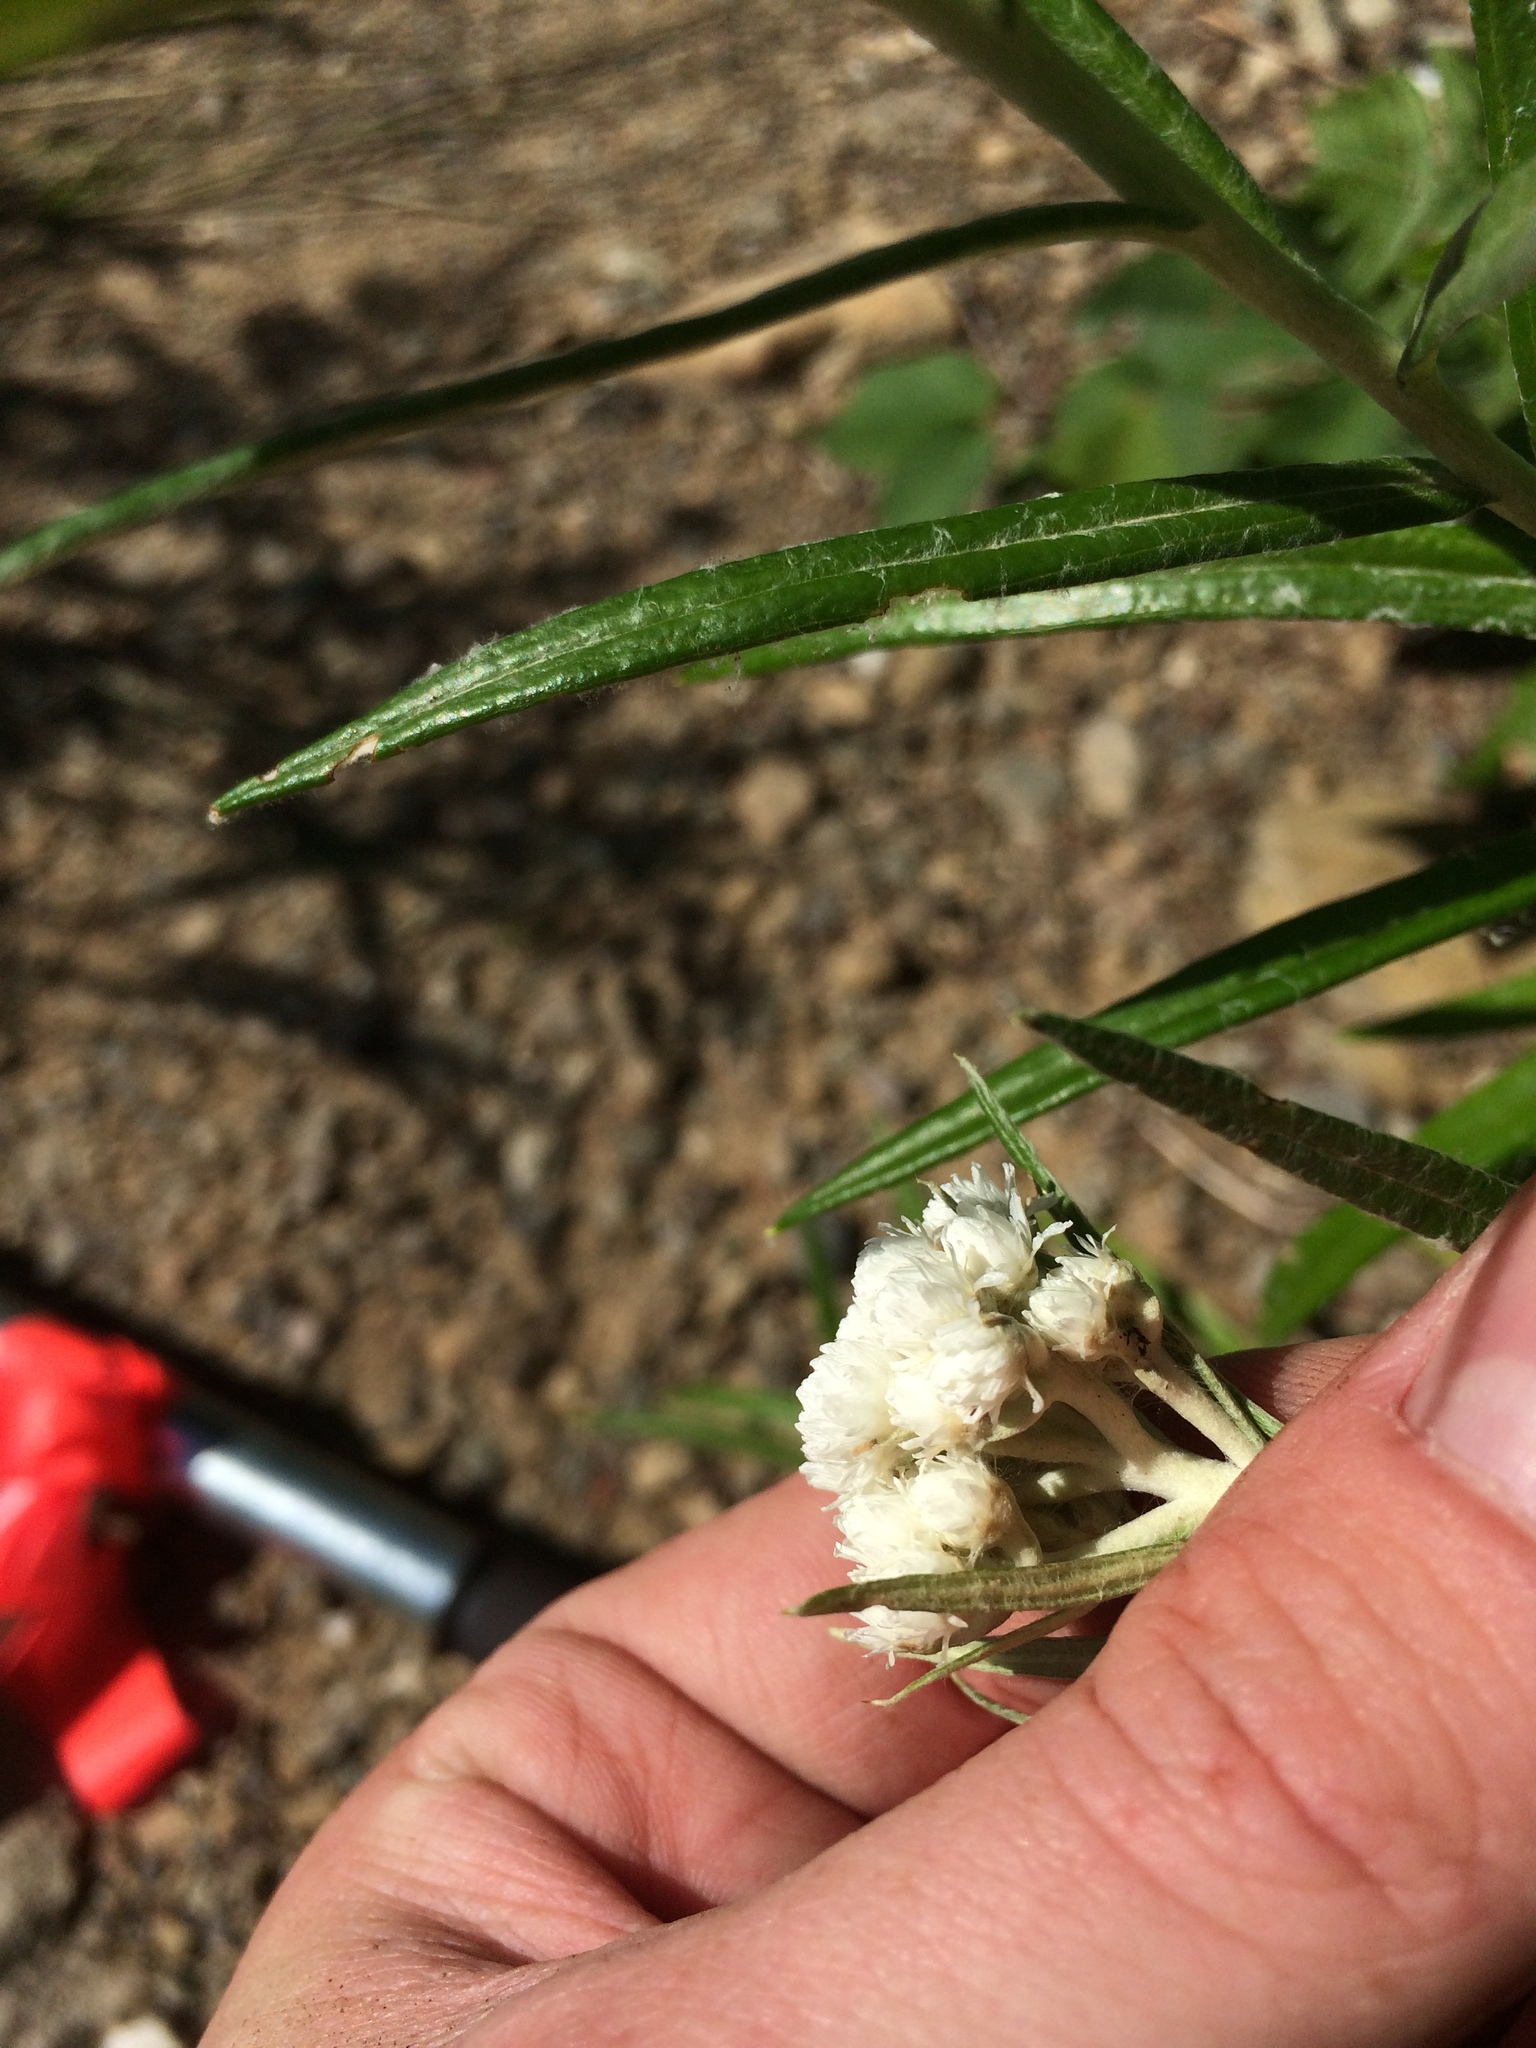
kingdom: Plantae
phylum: Tracheophyta
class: Magnoliopsida
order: Asterales
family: Asteraceae
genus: Anaphalis
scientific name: Anaphalis margaritacea
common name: Pearly everlasting
